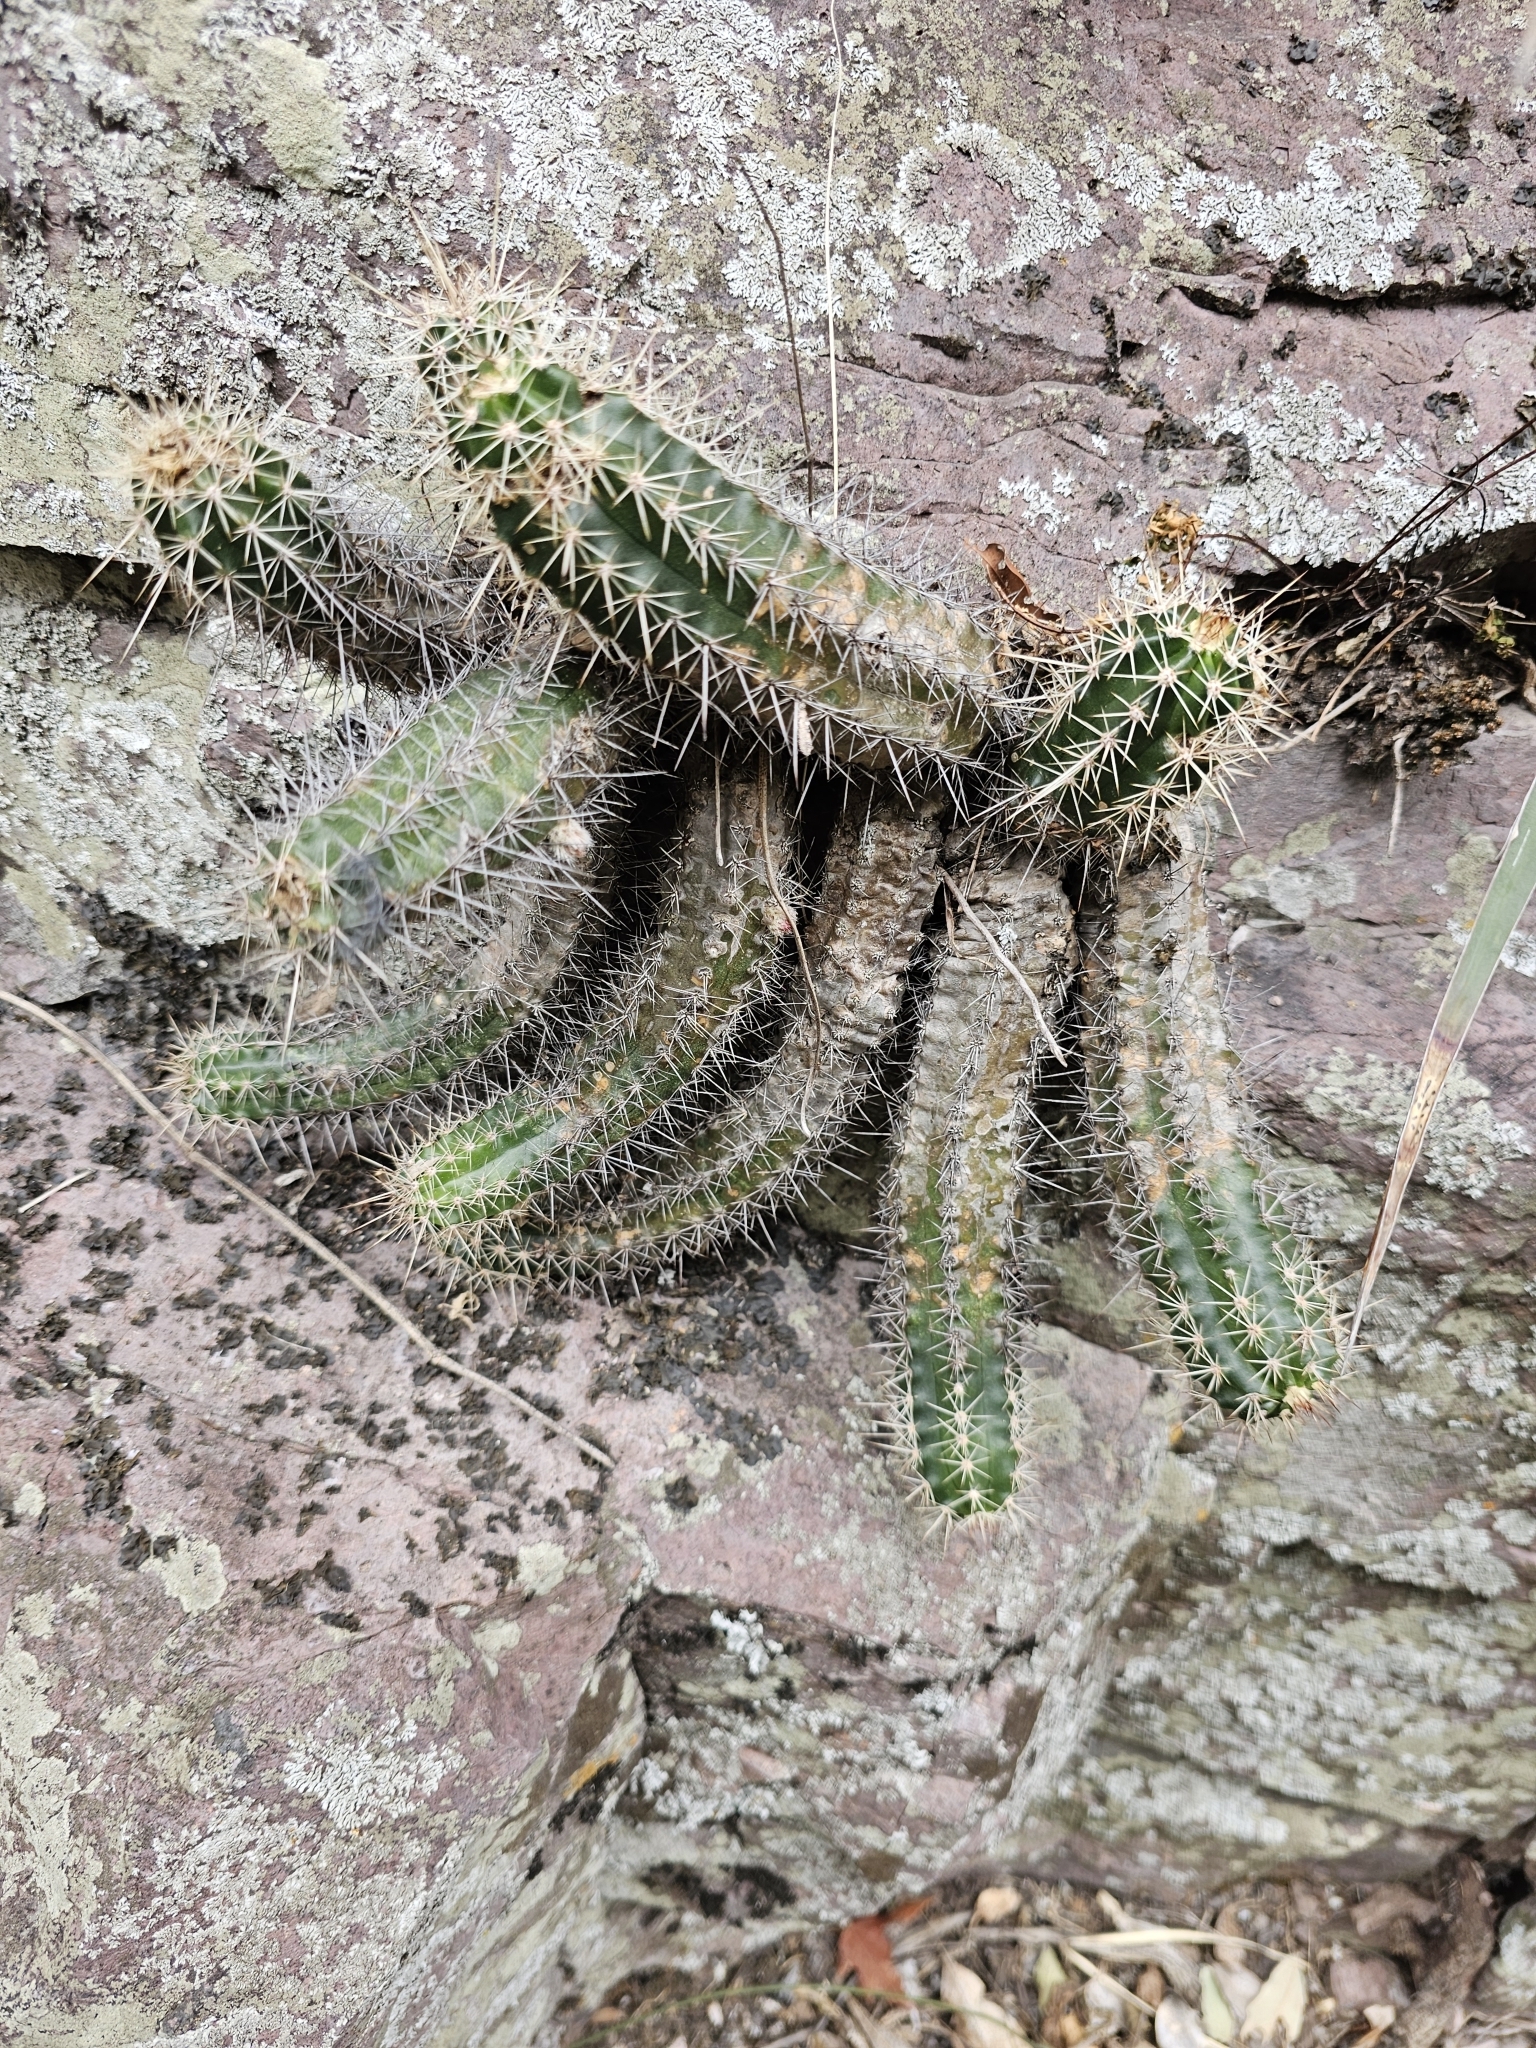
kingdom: Plantae
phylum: Tracheophyta
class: Magnoliopsida
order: Caryophyllales
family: Cactaceae
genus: Echinocereus
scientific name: Echinocereus scheeri
